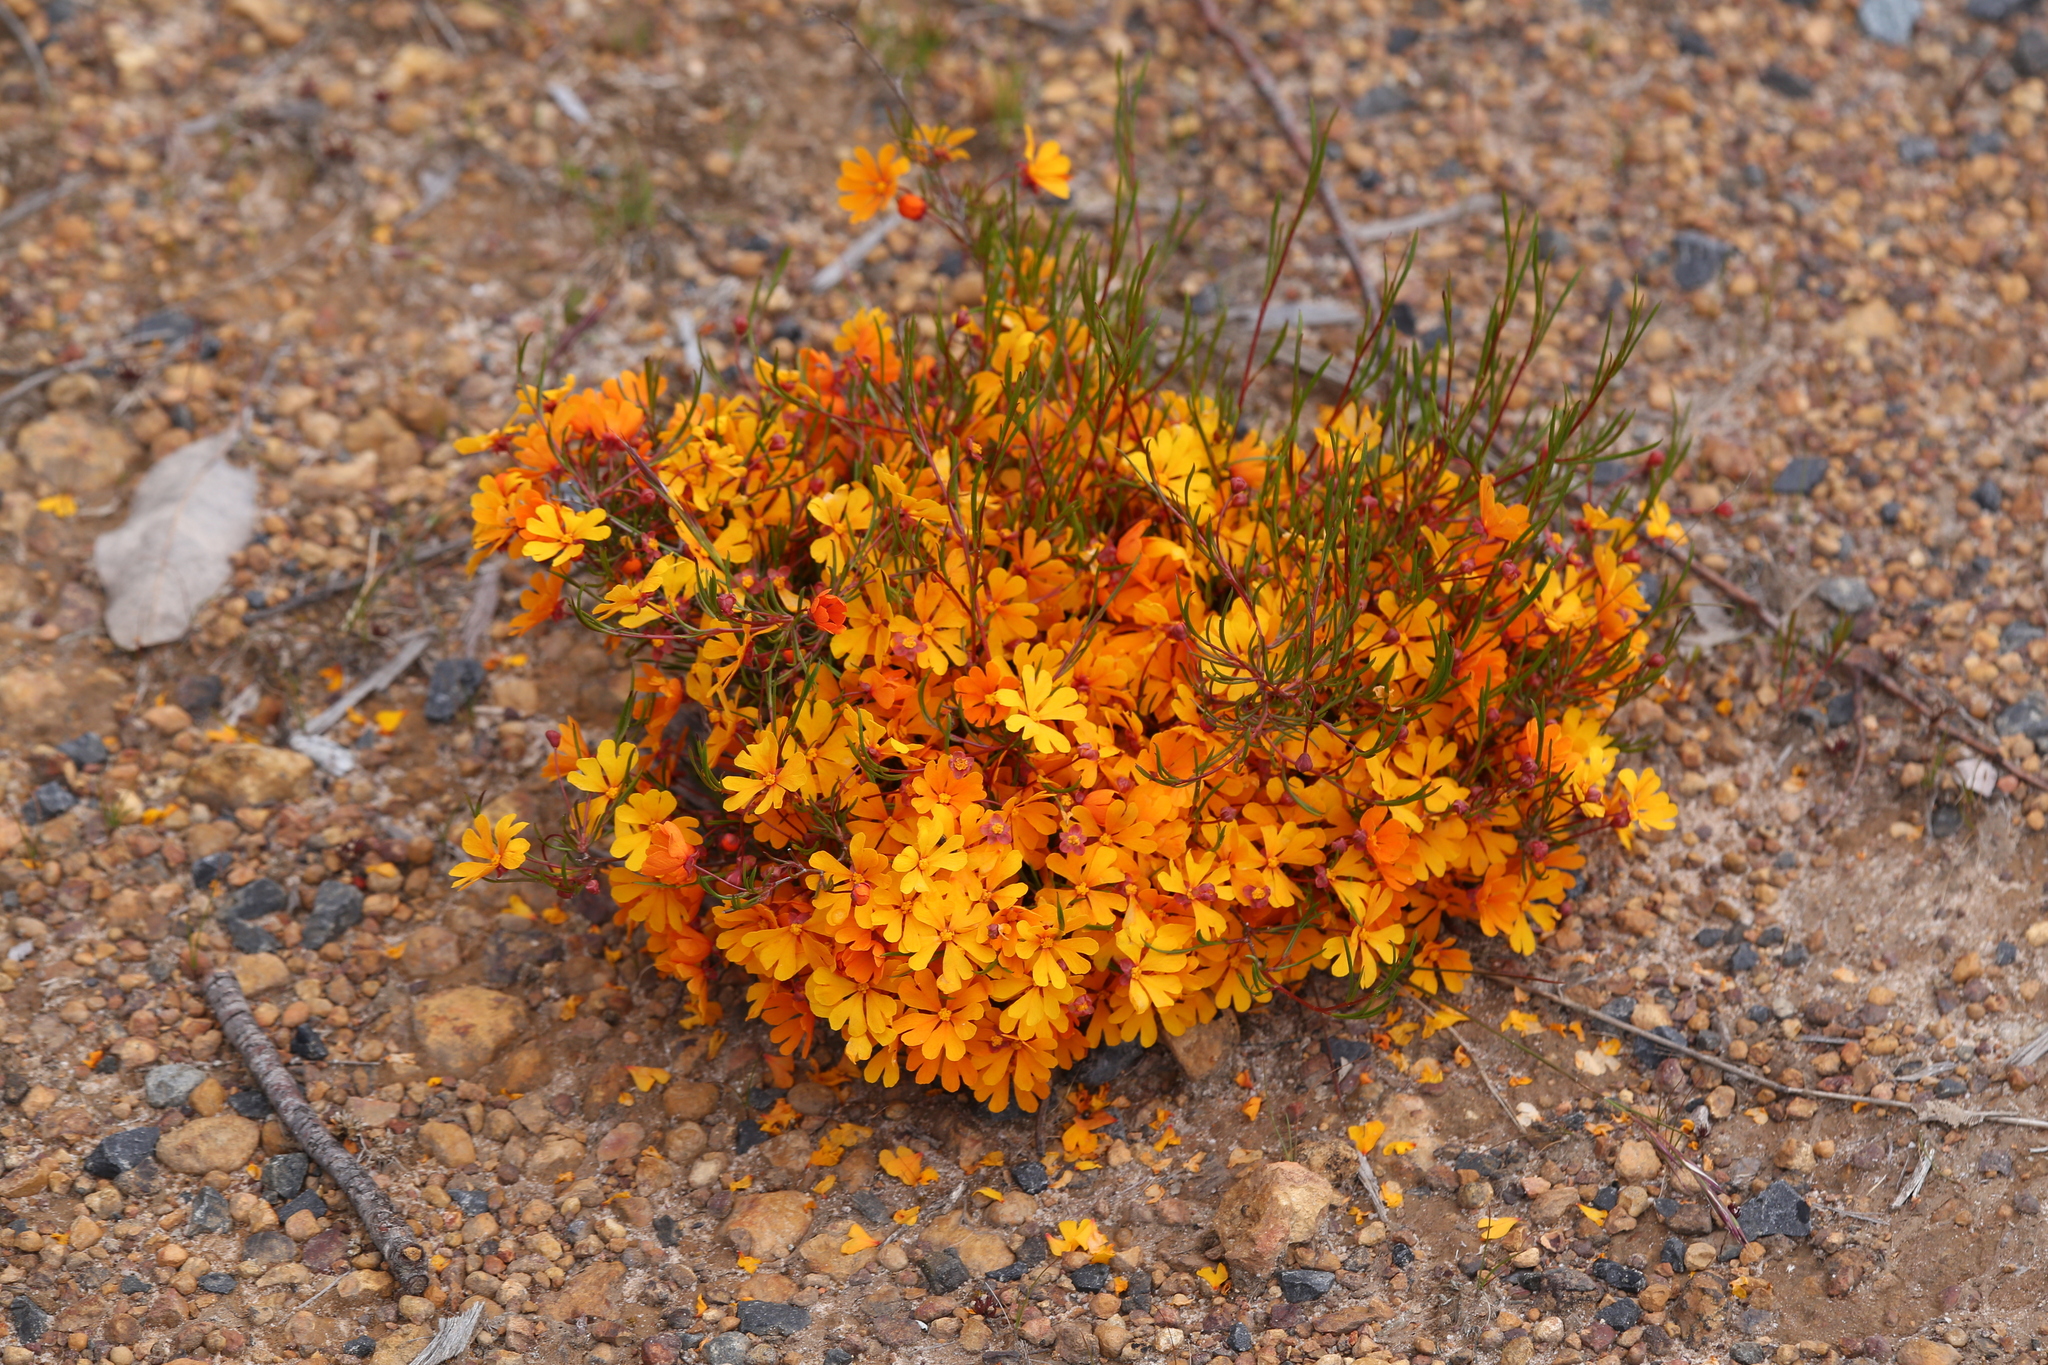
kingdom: Plantae
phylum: Tracheophyta
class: Magnoliopsida
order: Dilleniales
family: Dilleniaceae
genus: Hibbertia
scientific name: Hibbertia stellaris
